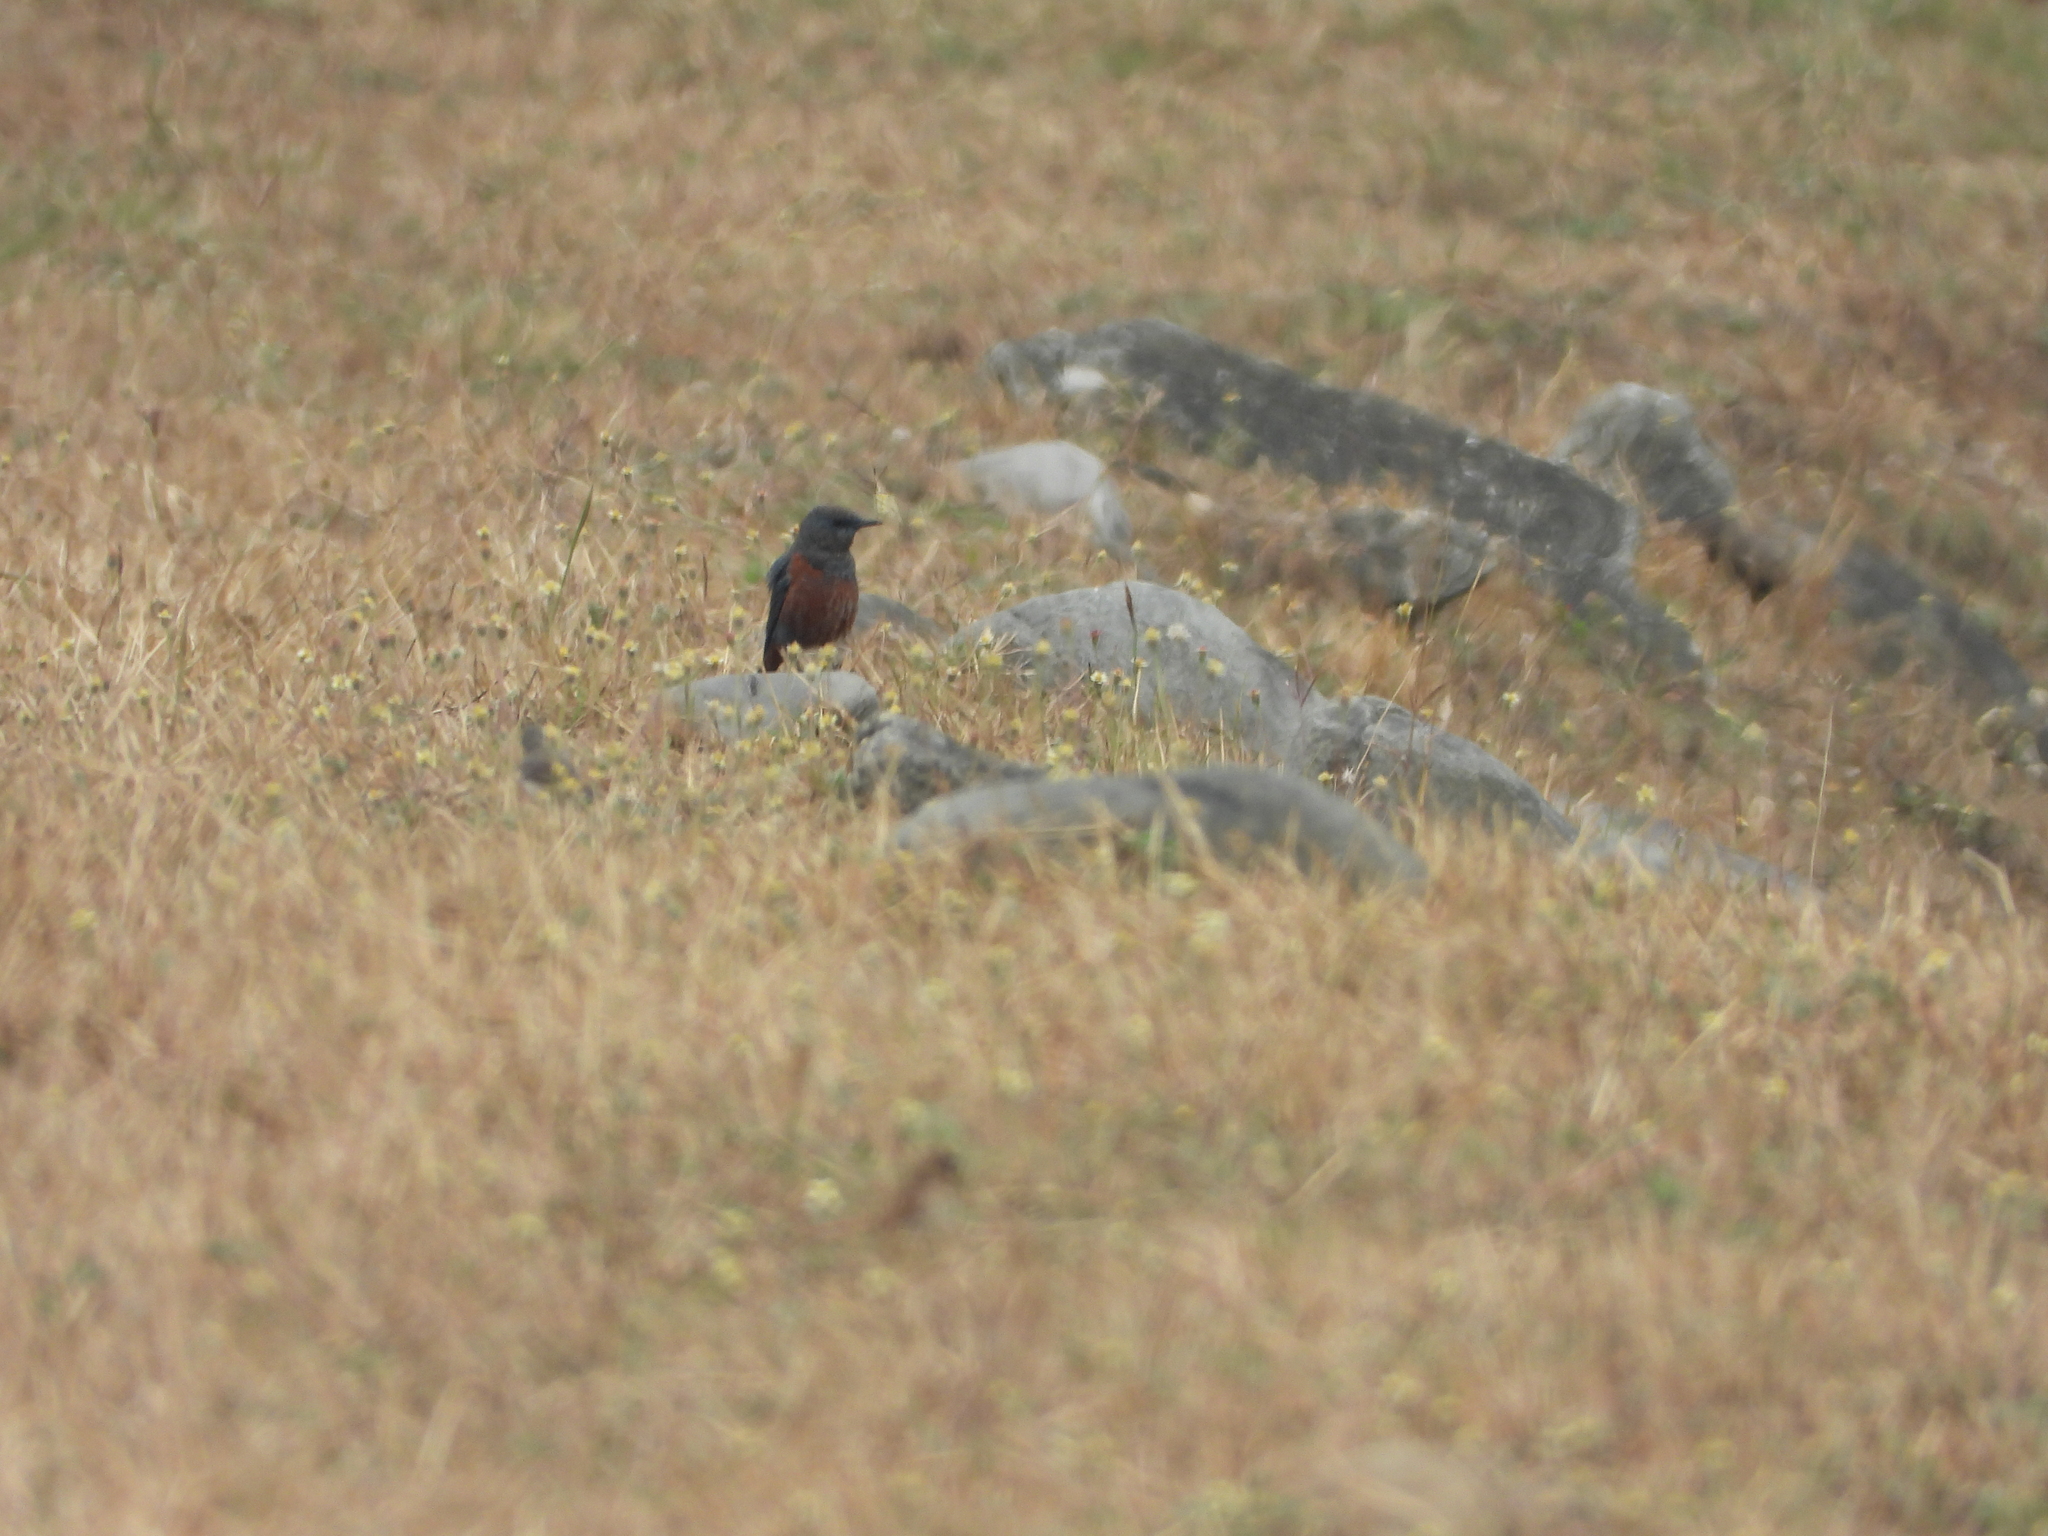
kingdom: Animalia
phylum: Chordata
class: Aves
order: Passeriformes
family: Muscicapidae
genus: Monticola
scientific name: Monticola solitarius
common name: Blue rock thrush
